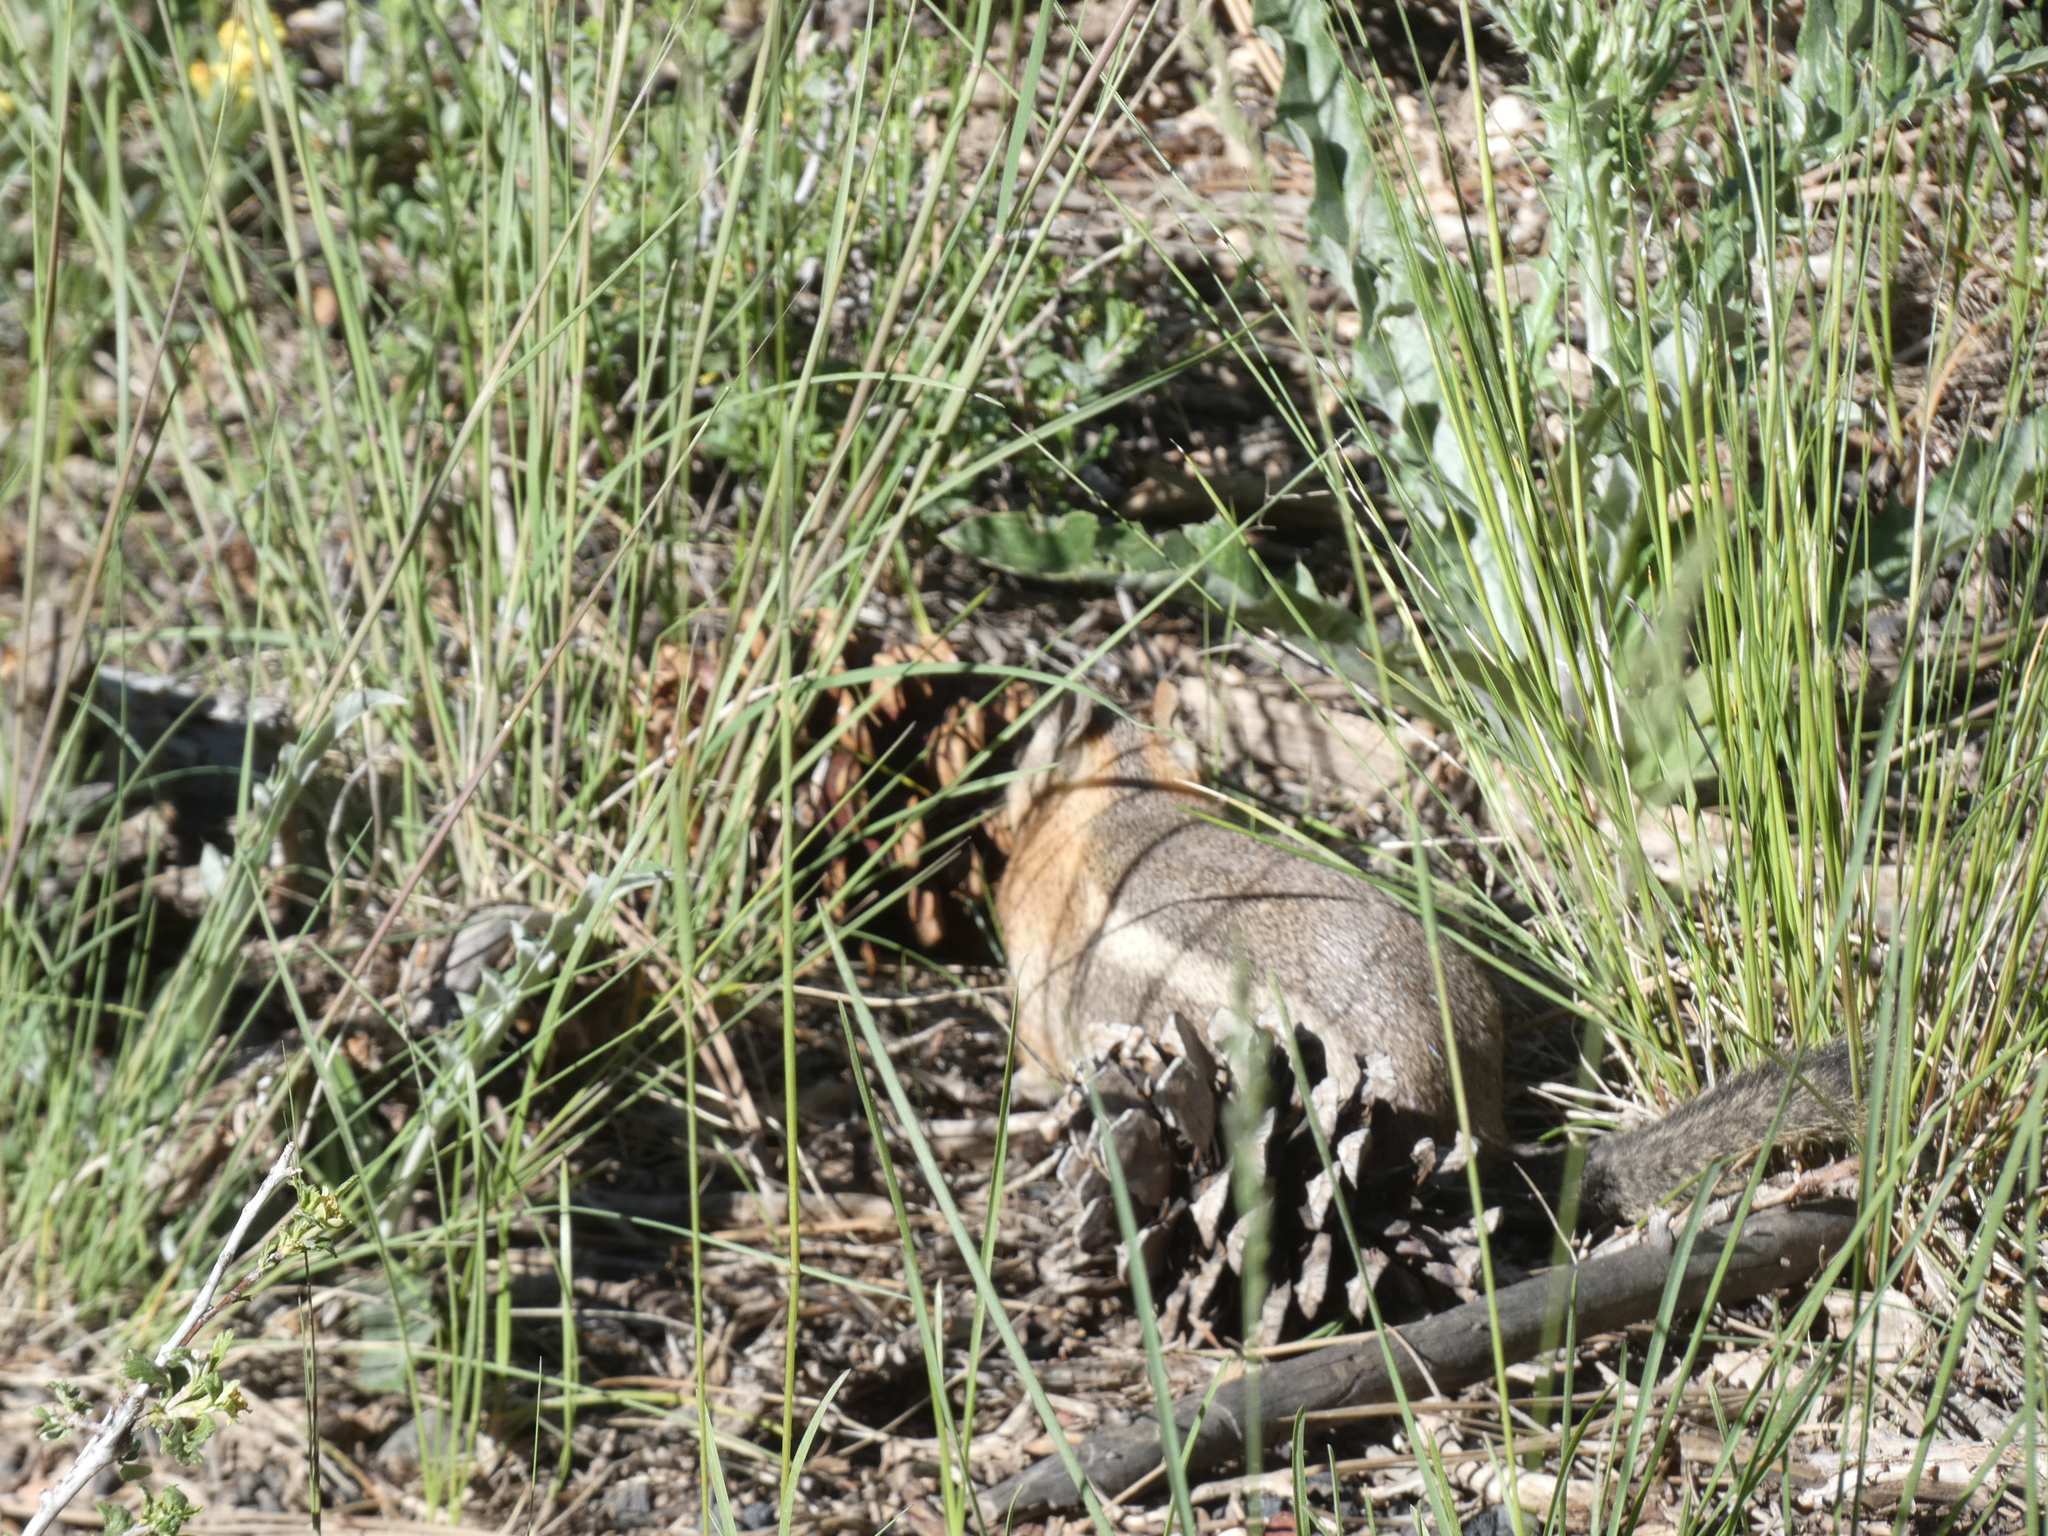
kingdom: Animalia
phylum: Chordata
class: Mammalia
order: Rodentia
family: Sciuridae
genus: Callospermophilus
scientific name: Callospermophilus lateralis
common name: Golden-mantled ground squirrel
